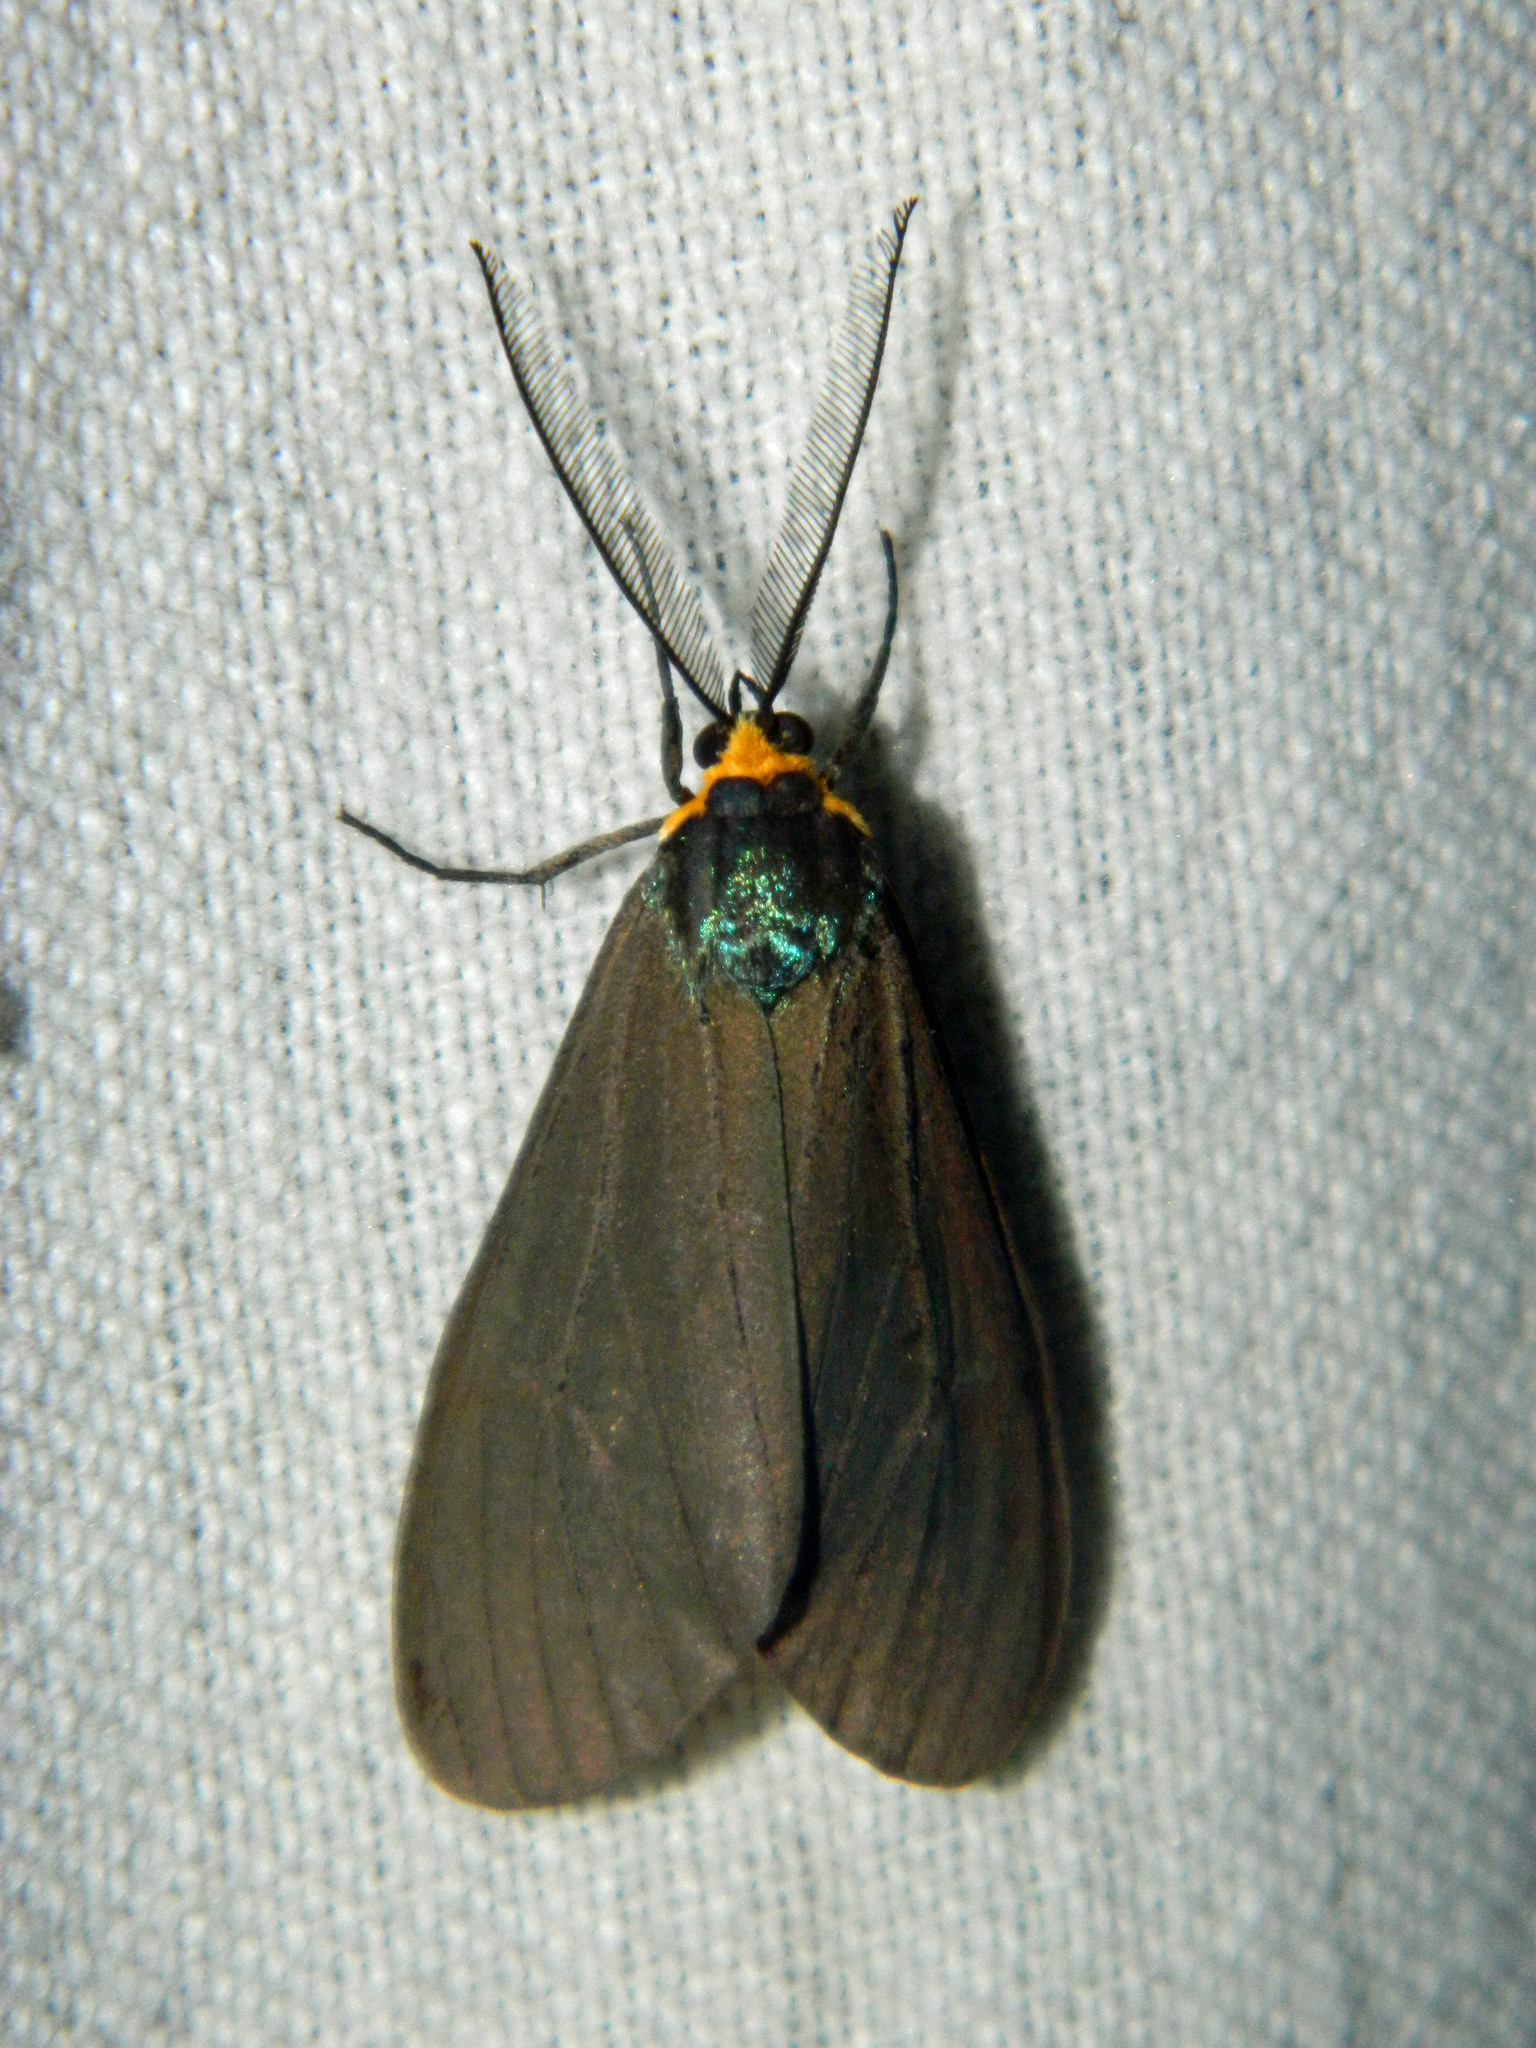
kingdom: Animalia
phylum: Arthropoda
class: Insecta
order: Lepidoptera
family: Erebidae
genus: Ctenucha
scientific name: Ctenucha virginica
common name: Virginia ctenucha moth
